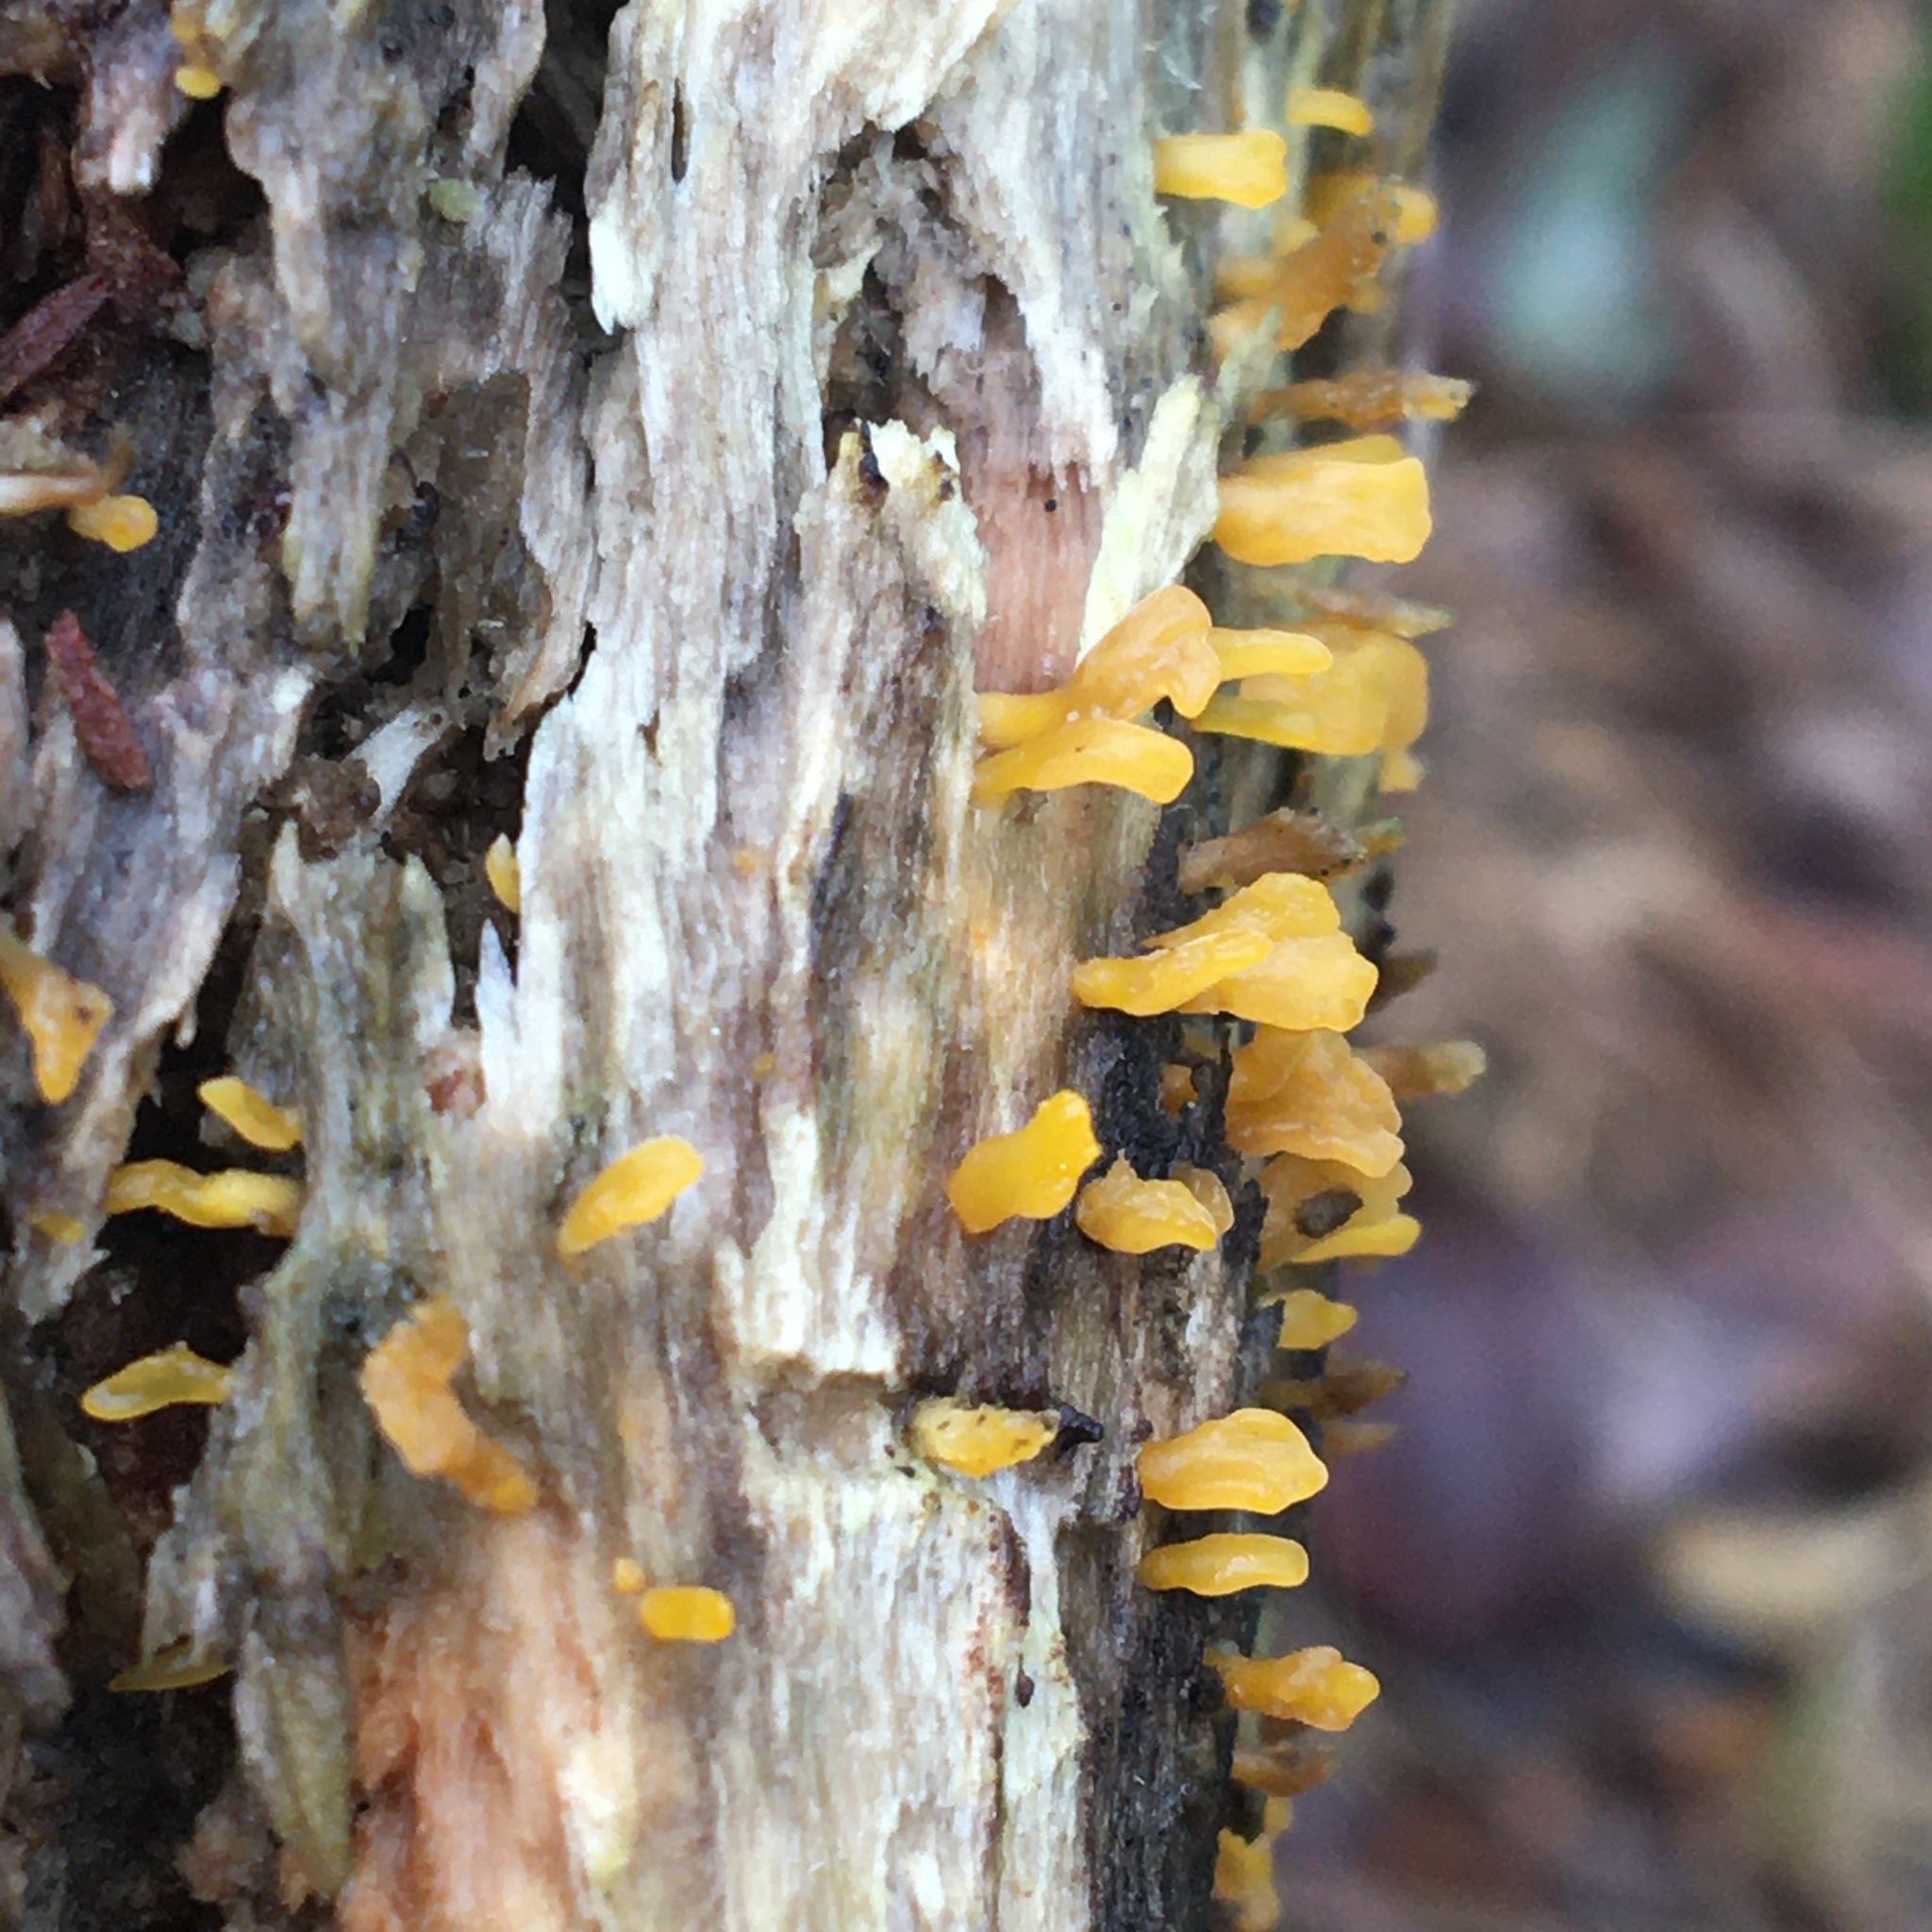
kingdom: Fungi
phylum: Basidiomycota
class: Dacrymycetes
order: Dacrymycetales
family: Dacrymycetaceae
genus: Dacrymyces
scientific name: Dacrymyces spathularius
